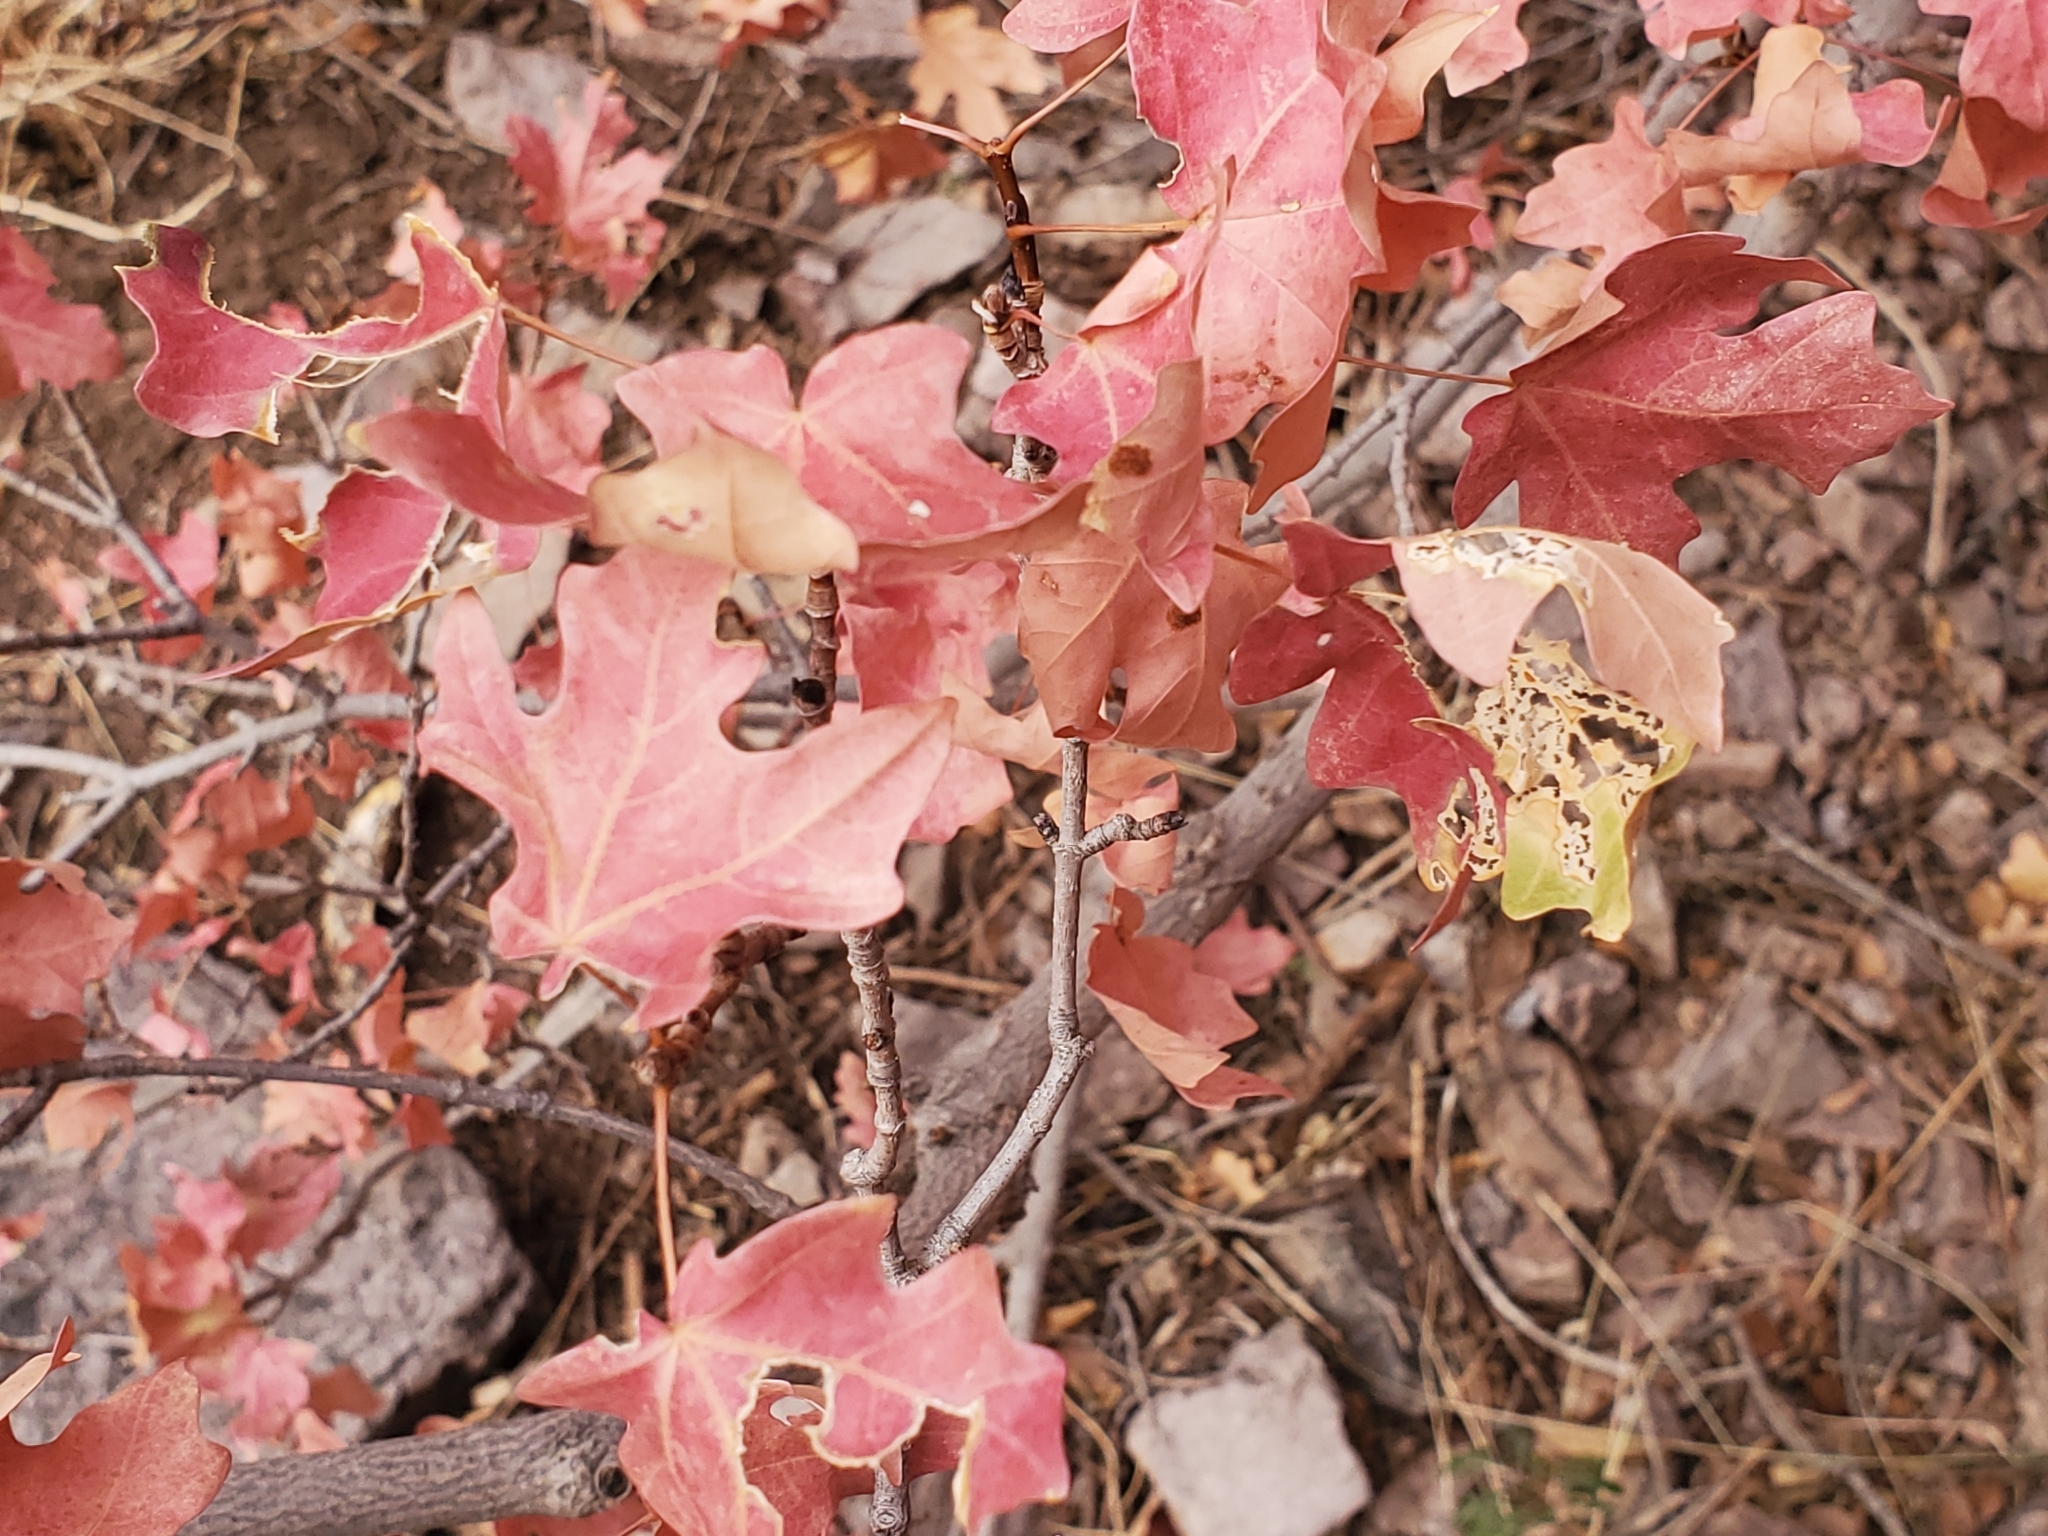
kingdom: Plantae
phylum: Tracheophyta
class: Magnoliopsida
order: Sapindales
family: Sapindaceae
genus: Acer
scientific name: Acer grandidentatum
